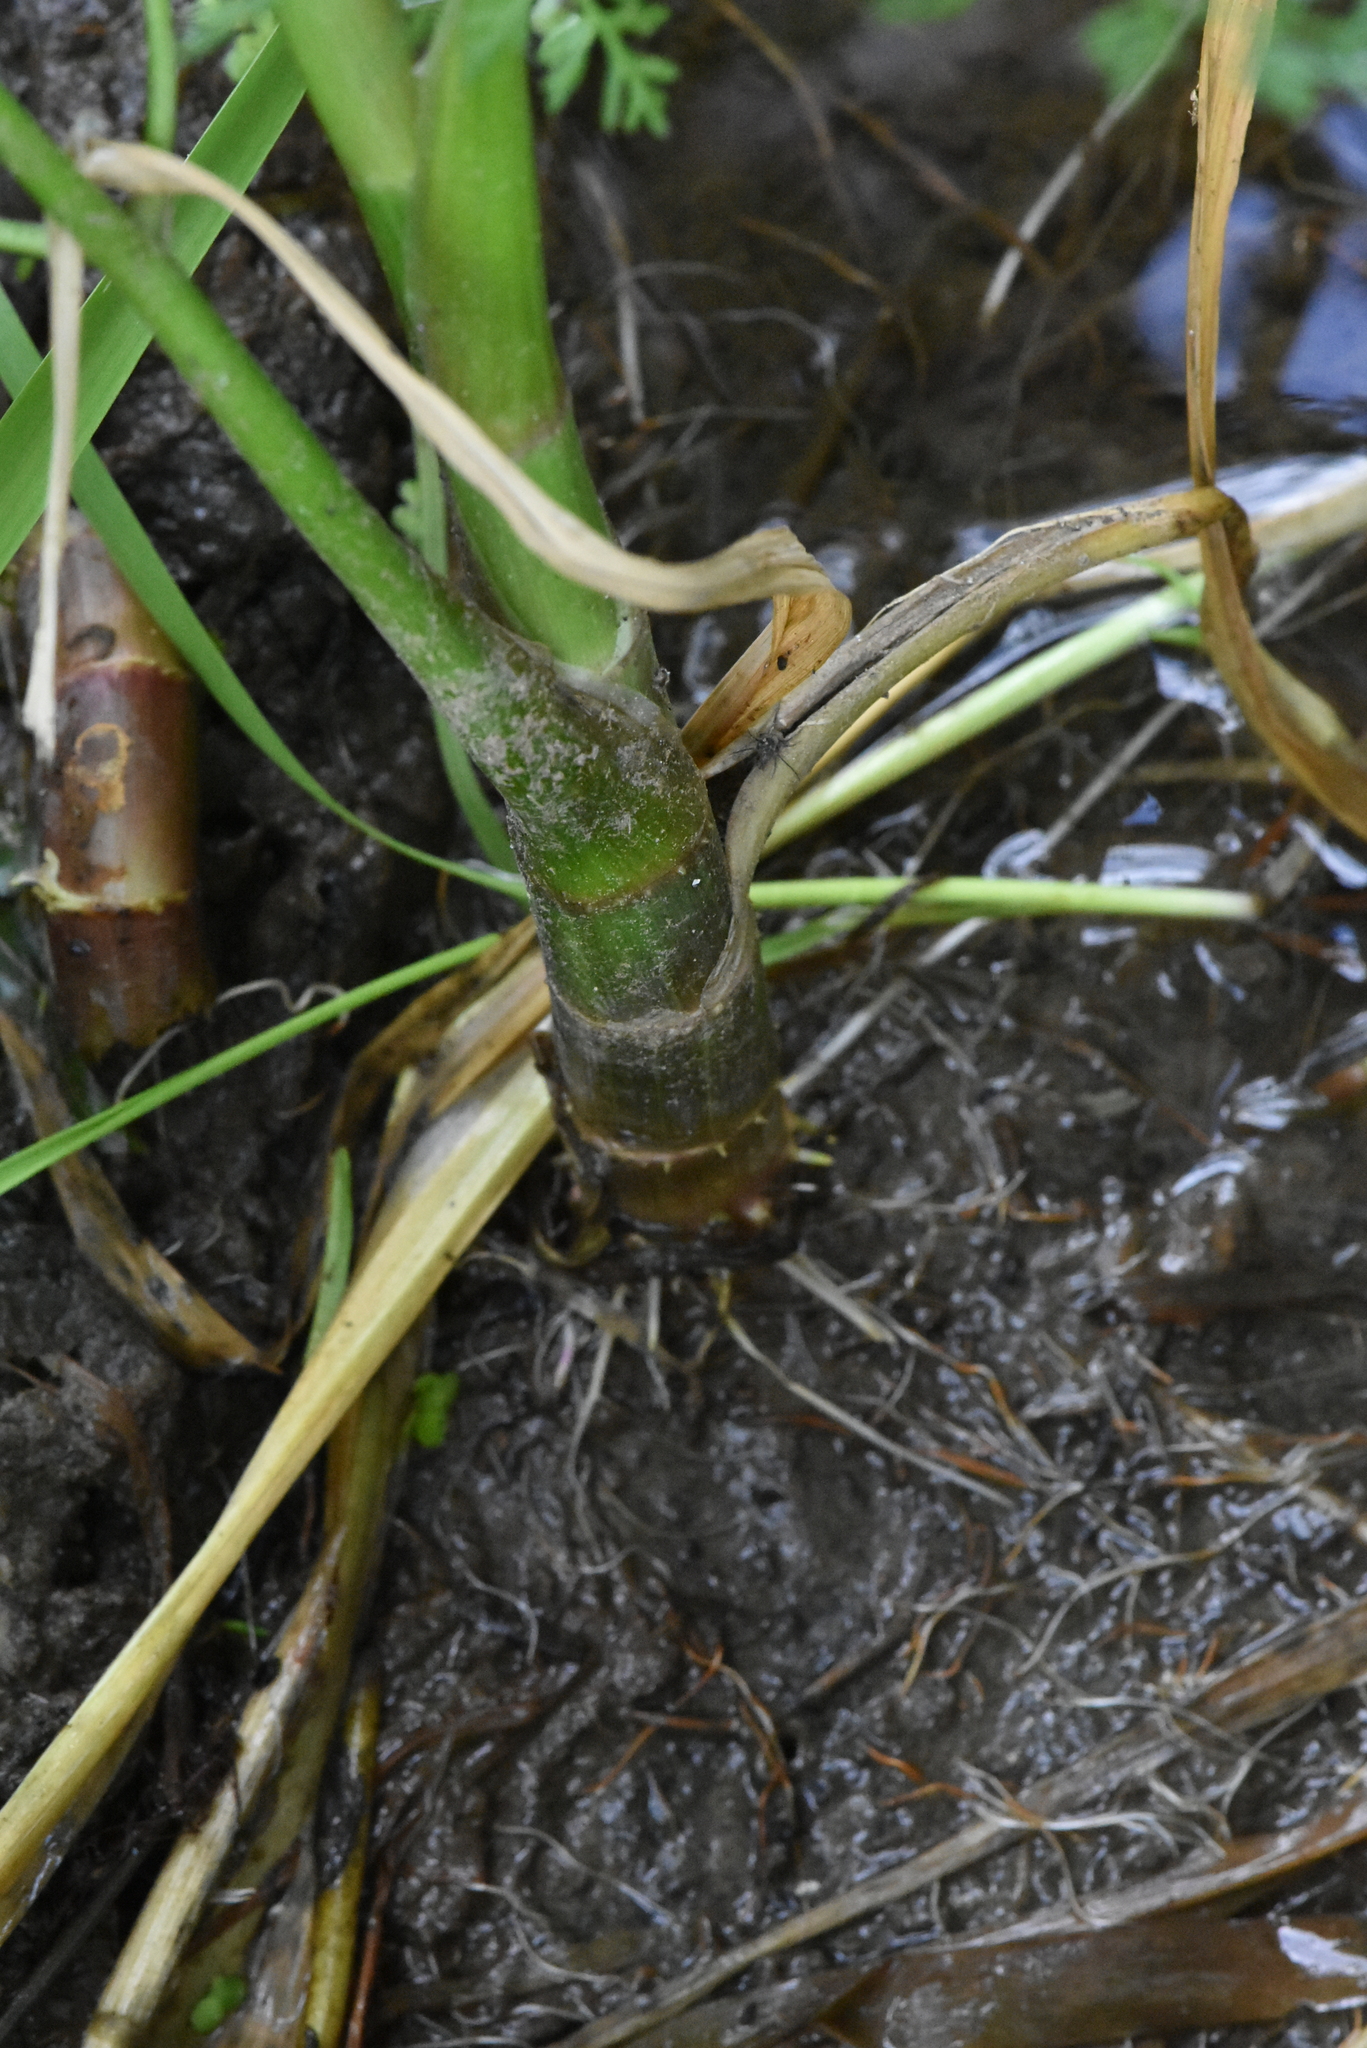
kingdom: Plantae
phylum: Tracheophyta
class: Magnoliopsida
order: Apiales
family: Apiaceae
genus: Oenanthe
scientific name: Oenanthe aquatica
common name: Fine-leaved water-dropwort
